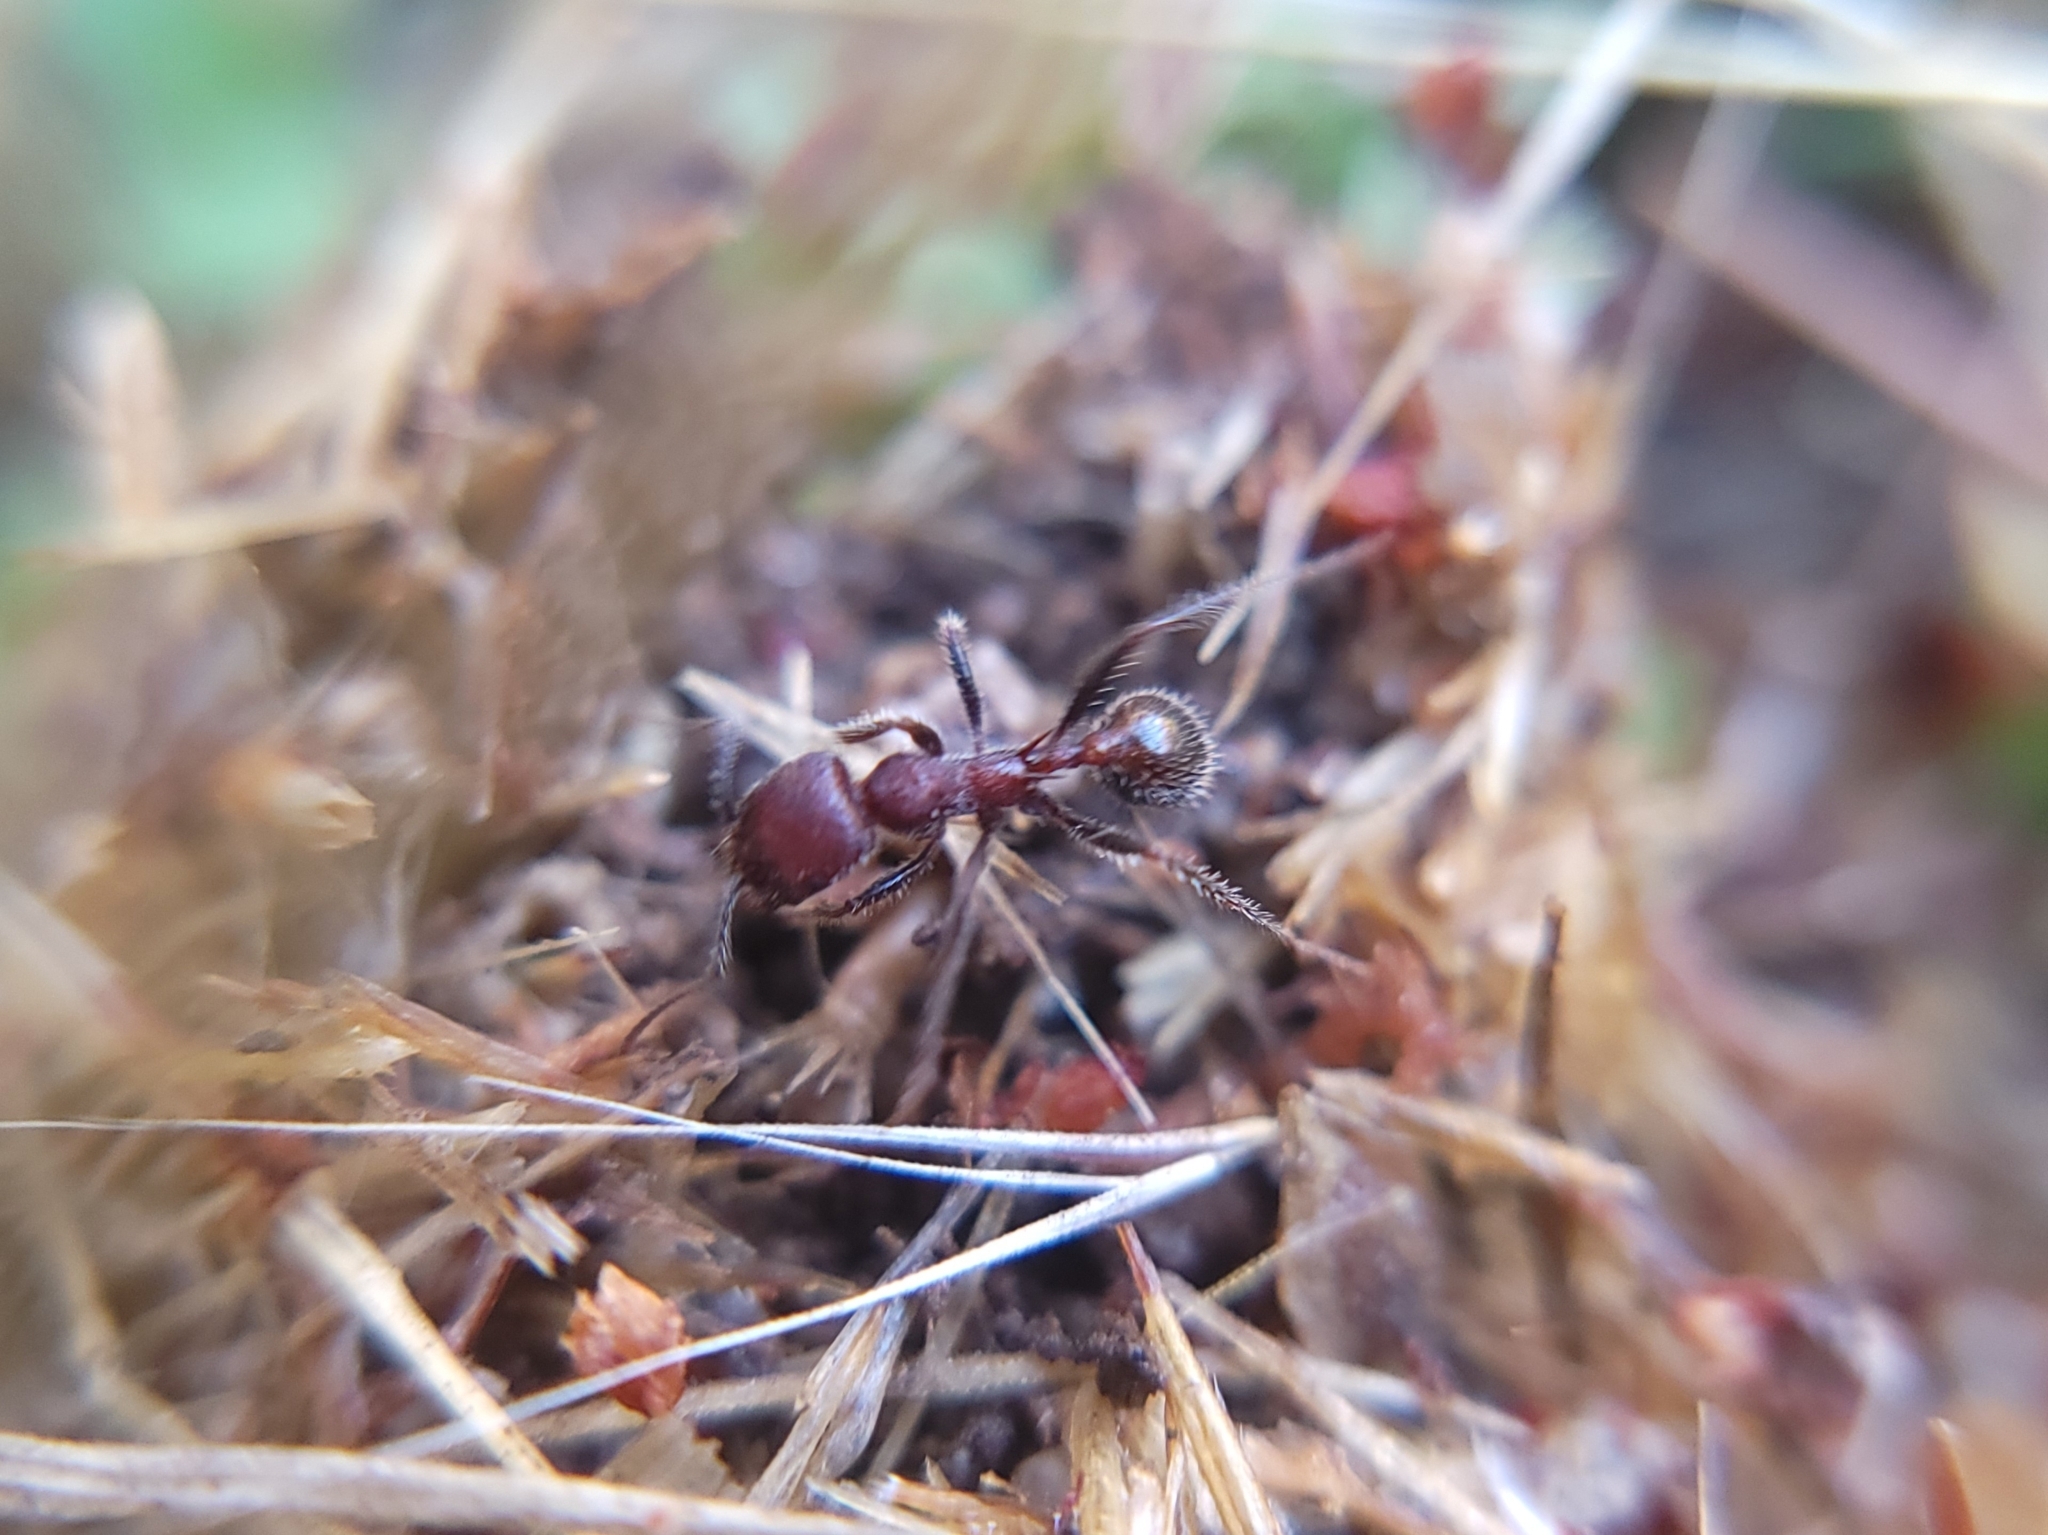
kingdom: Animalia
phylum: Arthropoda
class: Insecta
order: Hymenoptera
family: Formicidae
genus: Veromessor
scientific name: Veromessor andrei
